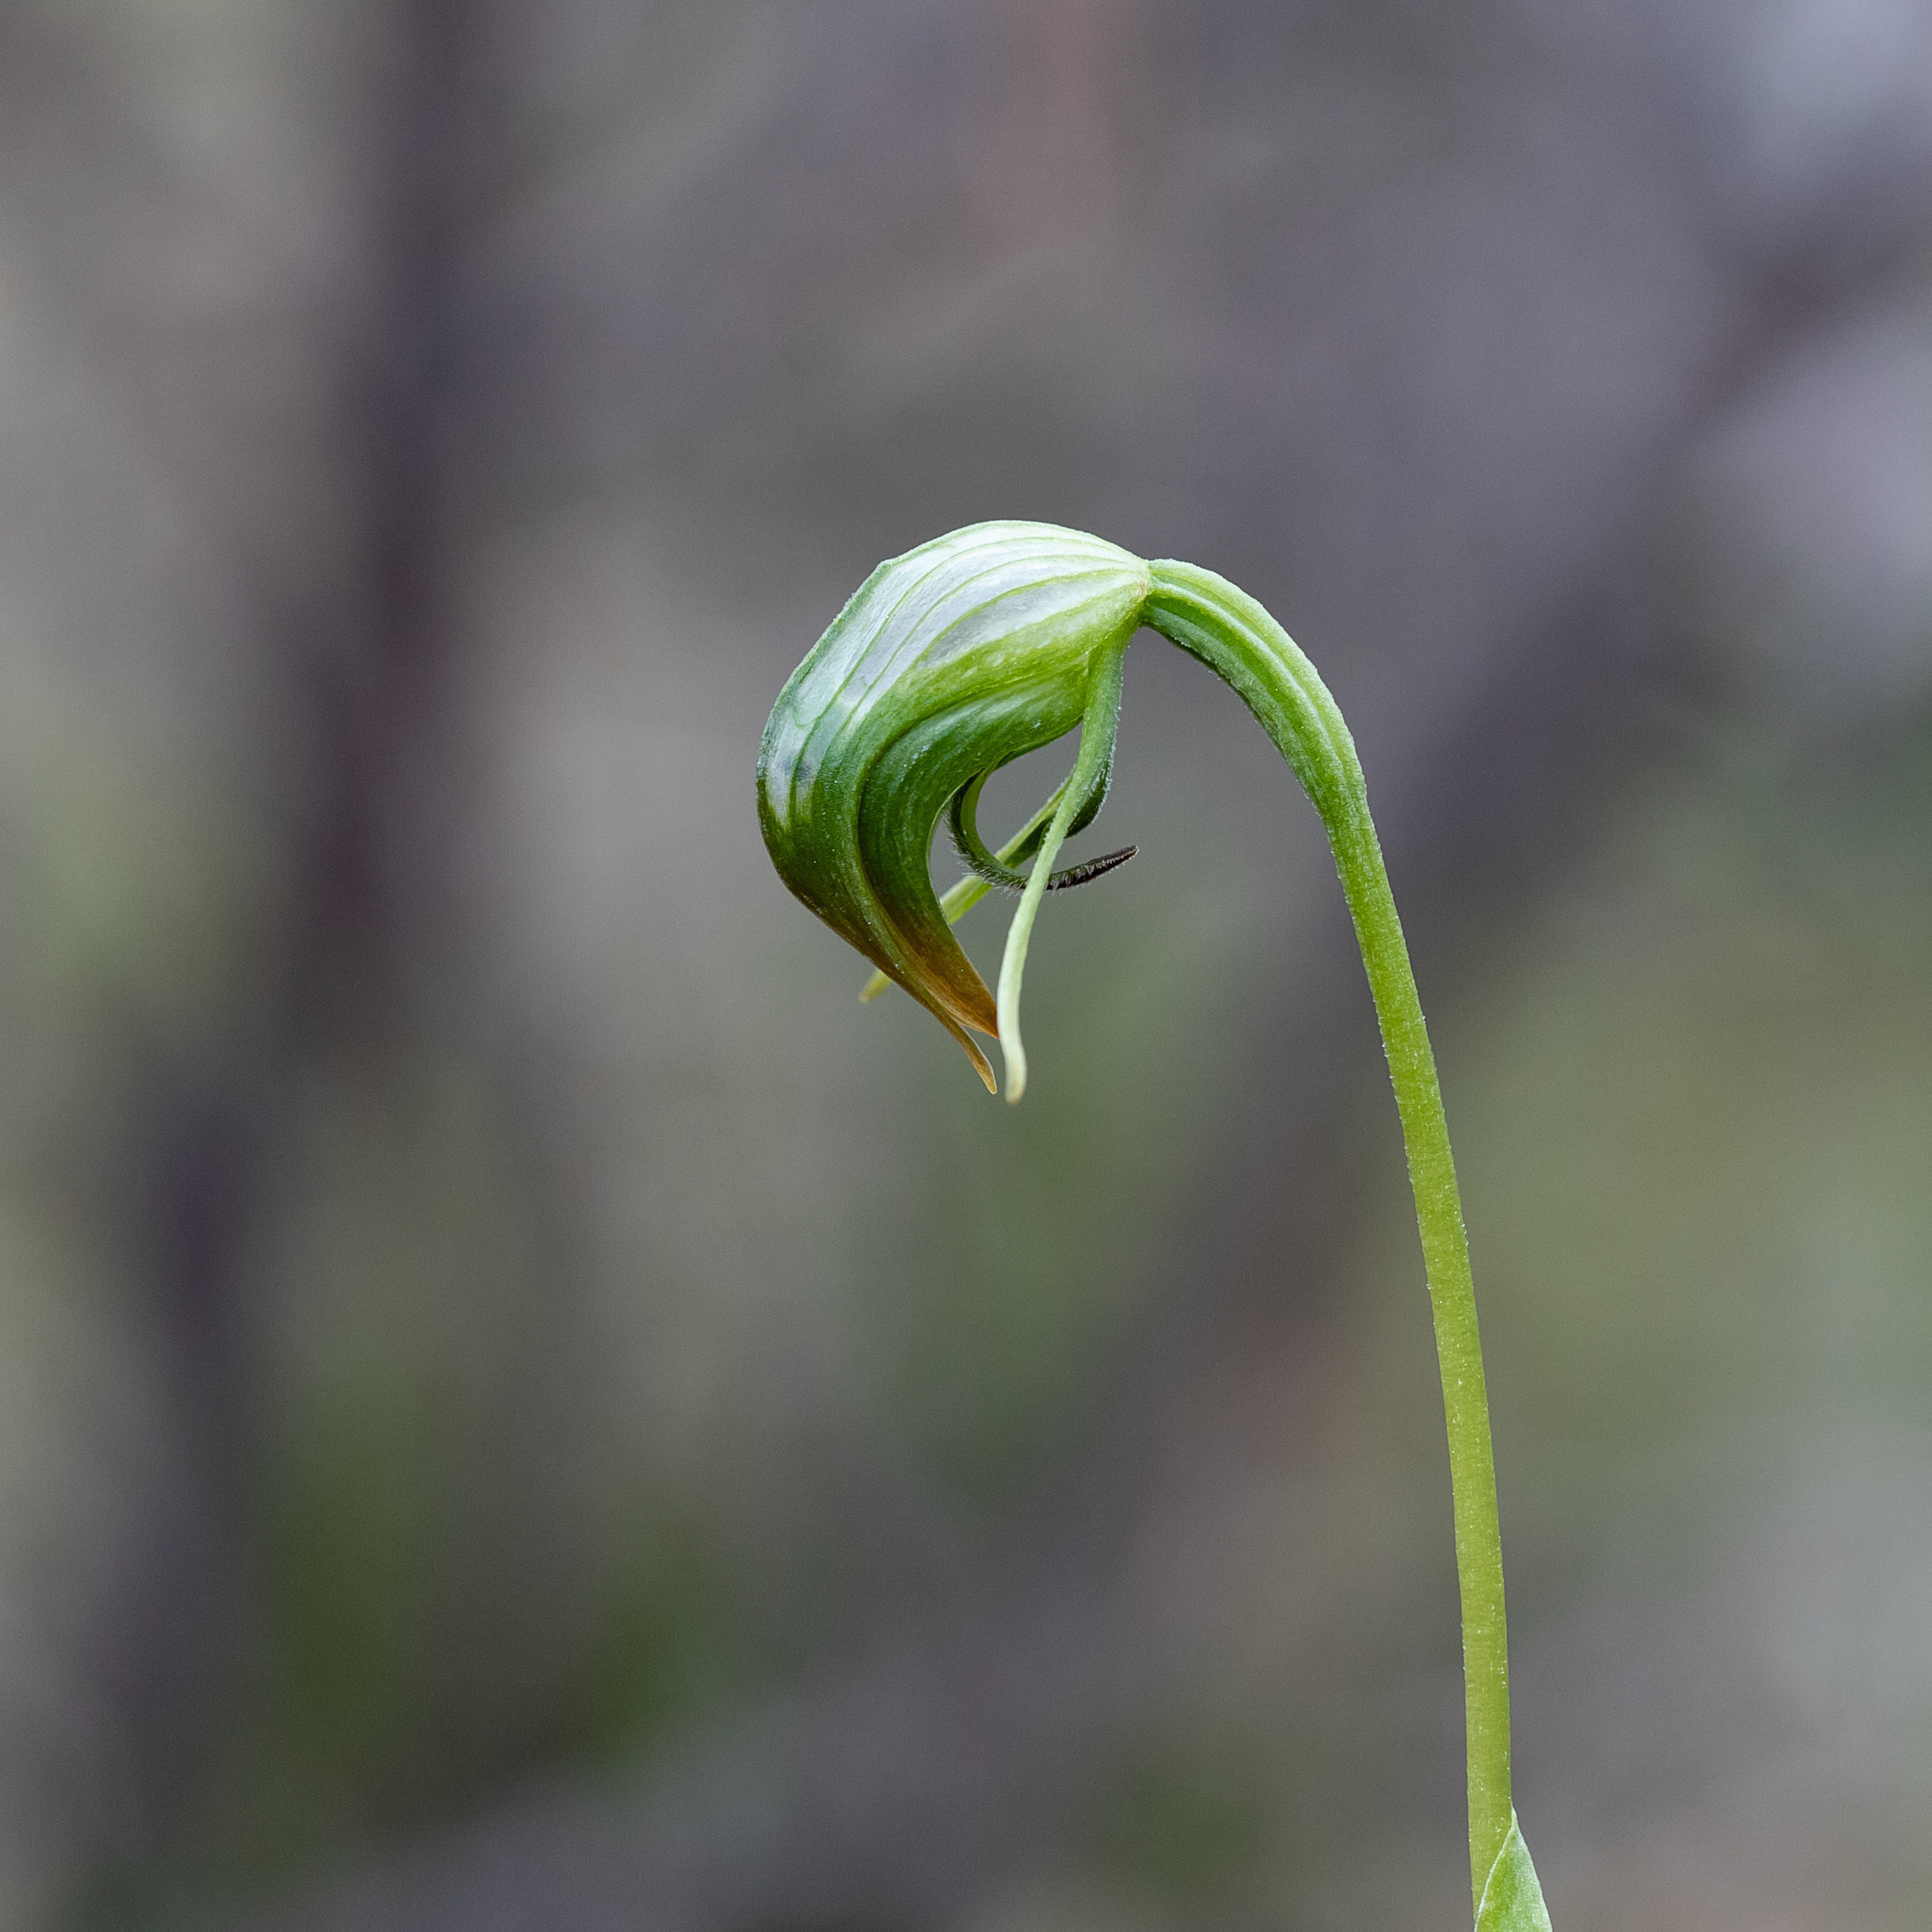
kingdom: Plantae
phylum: Tracheophyta
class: Liliopsida
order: Asparagales
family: Orchidaceae
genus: Pterostylis
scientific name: Pterostylis nutans
